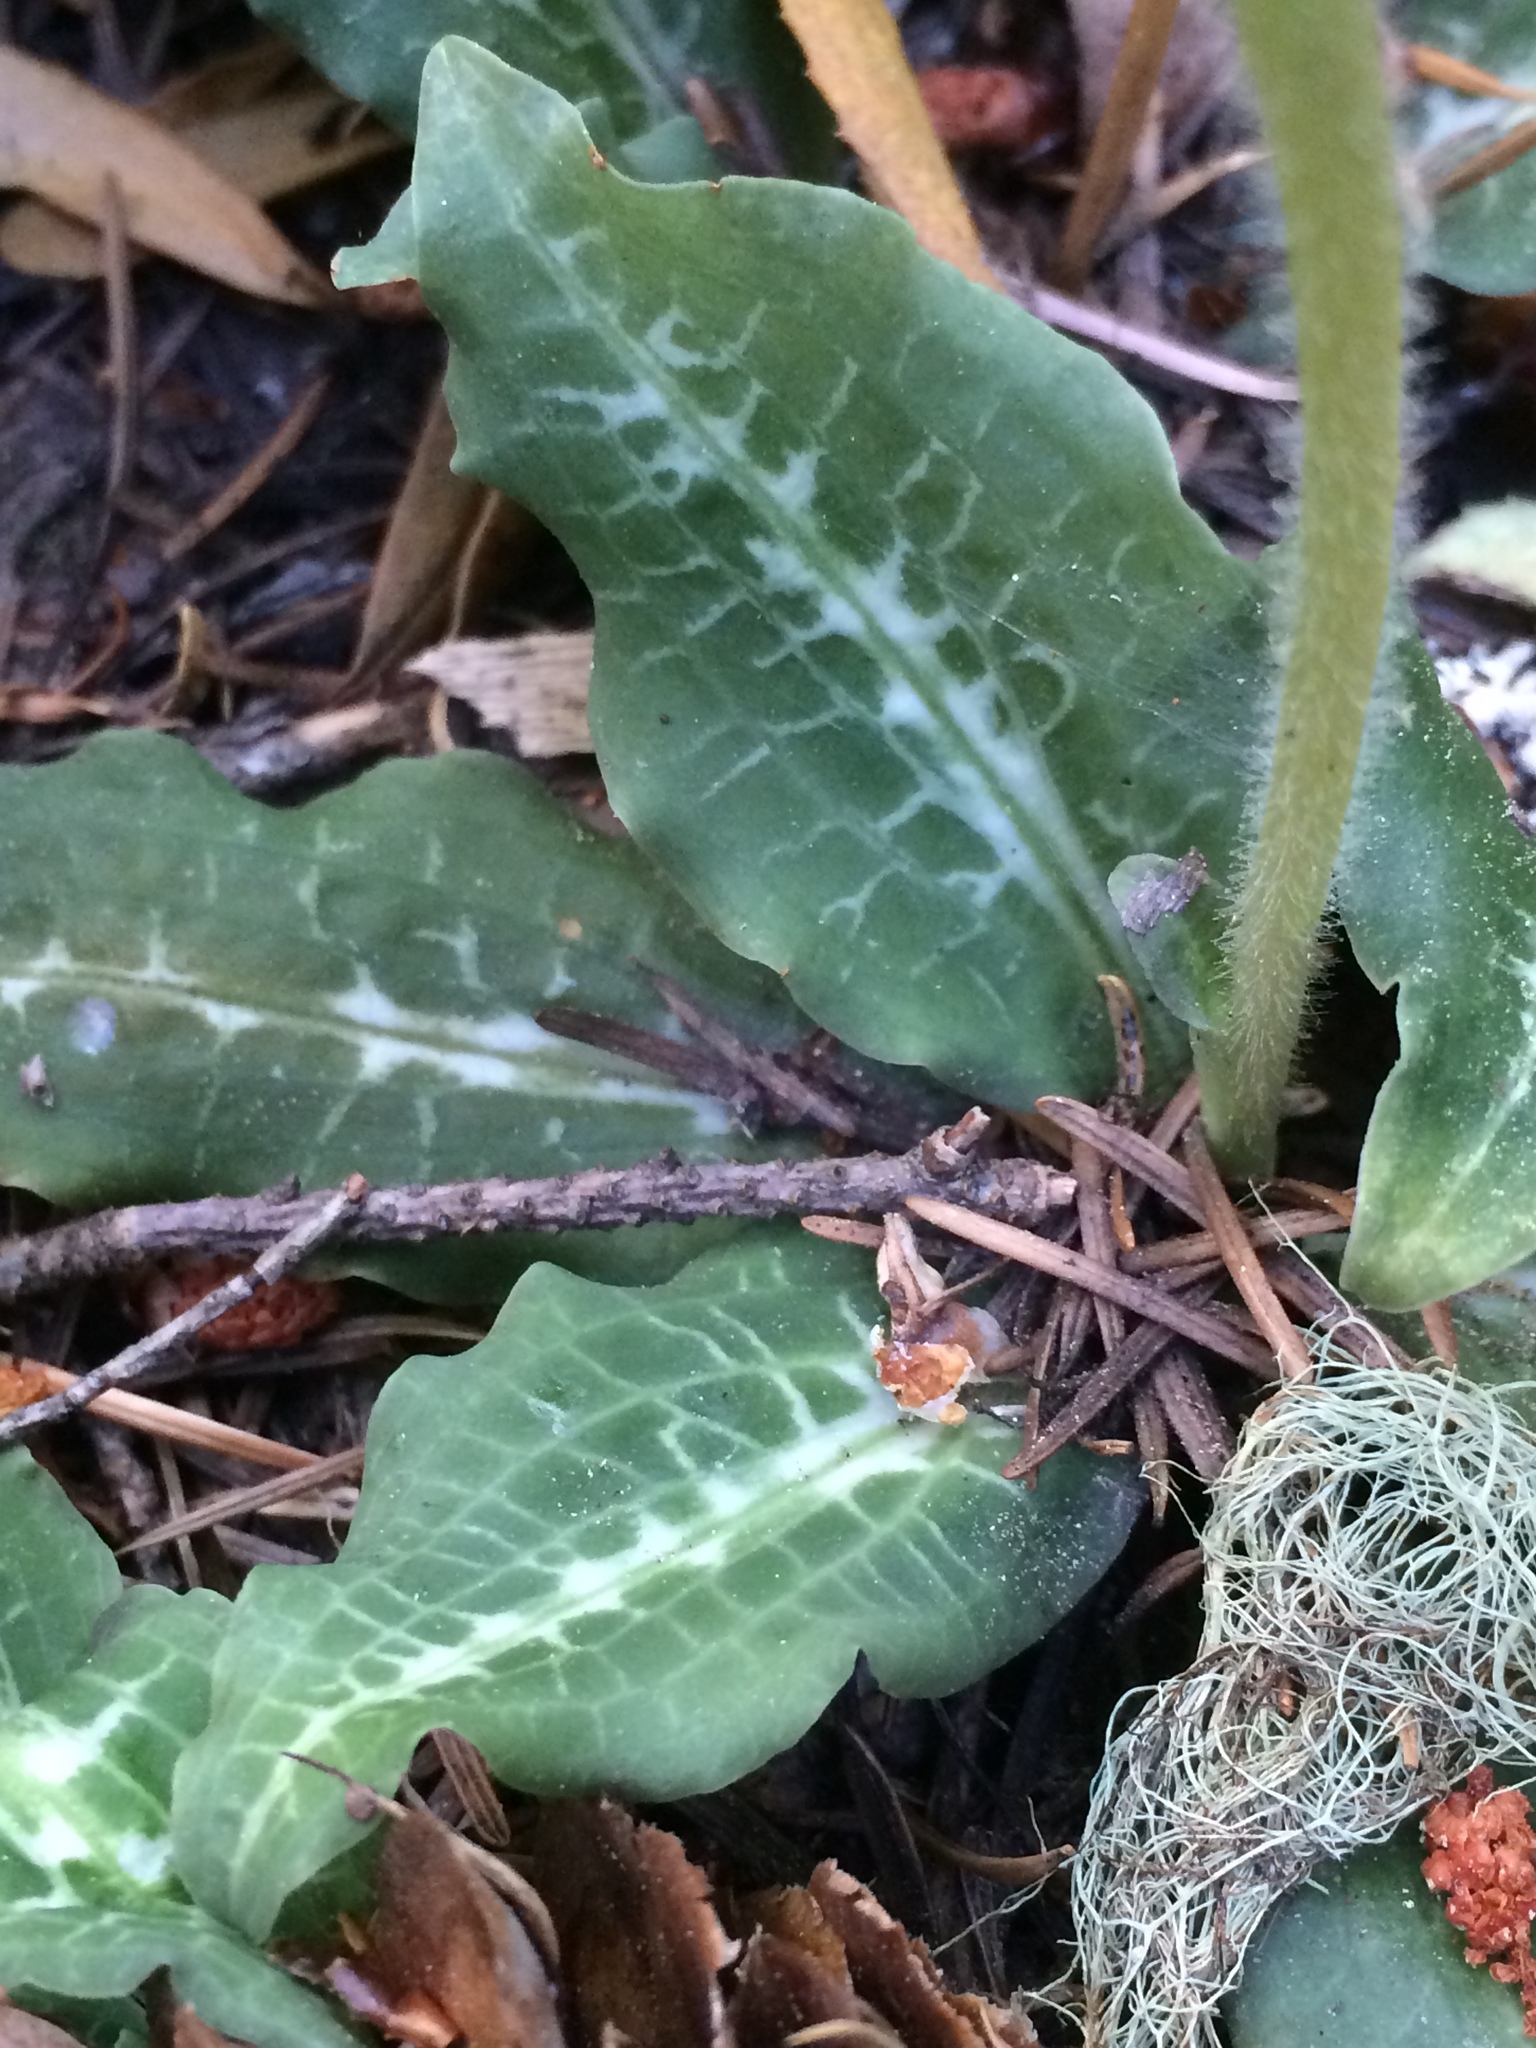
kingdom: Plantae
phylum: Tracheophyta
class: Liliopsida
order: Asparagales
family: Orchidaceae
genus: Goodyera
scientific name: Goodyera oblongifolia
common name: Giant rattlesnake-plantain
